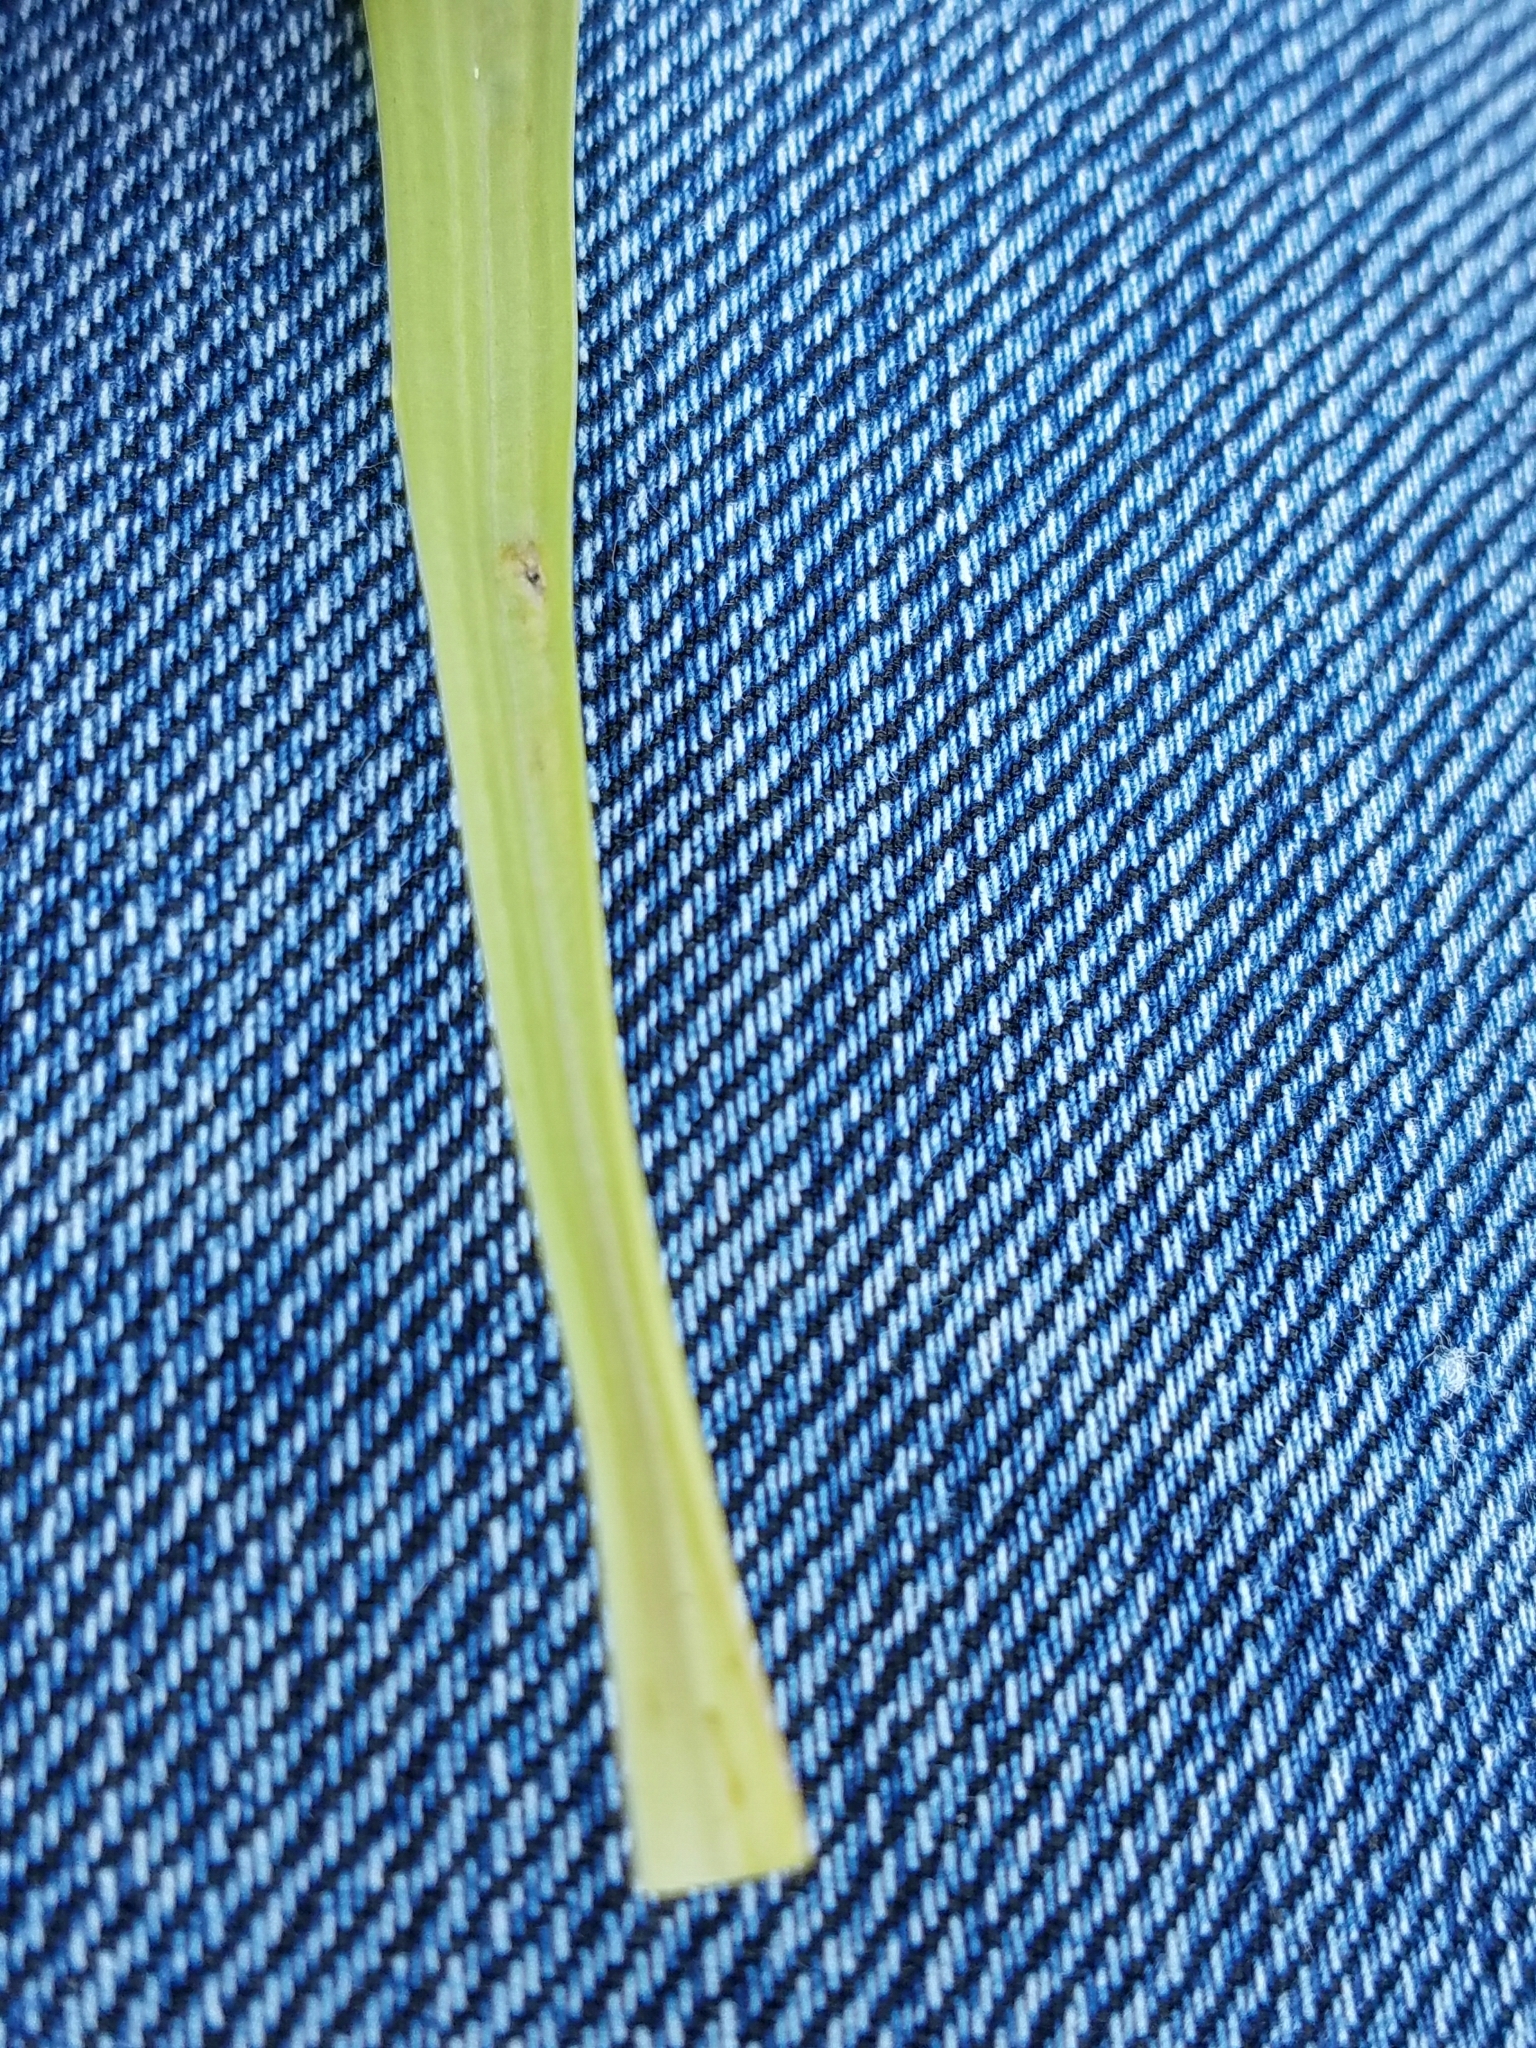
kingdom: Plantae
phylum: Tracheophyta
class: Magnoliopsida
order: Lamiales
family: Plantaginaceae
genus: Plantago
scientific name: Plantago lanceolata
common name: Ribwort plantain
